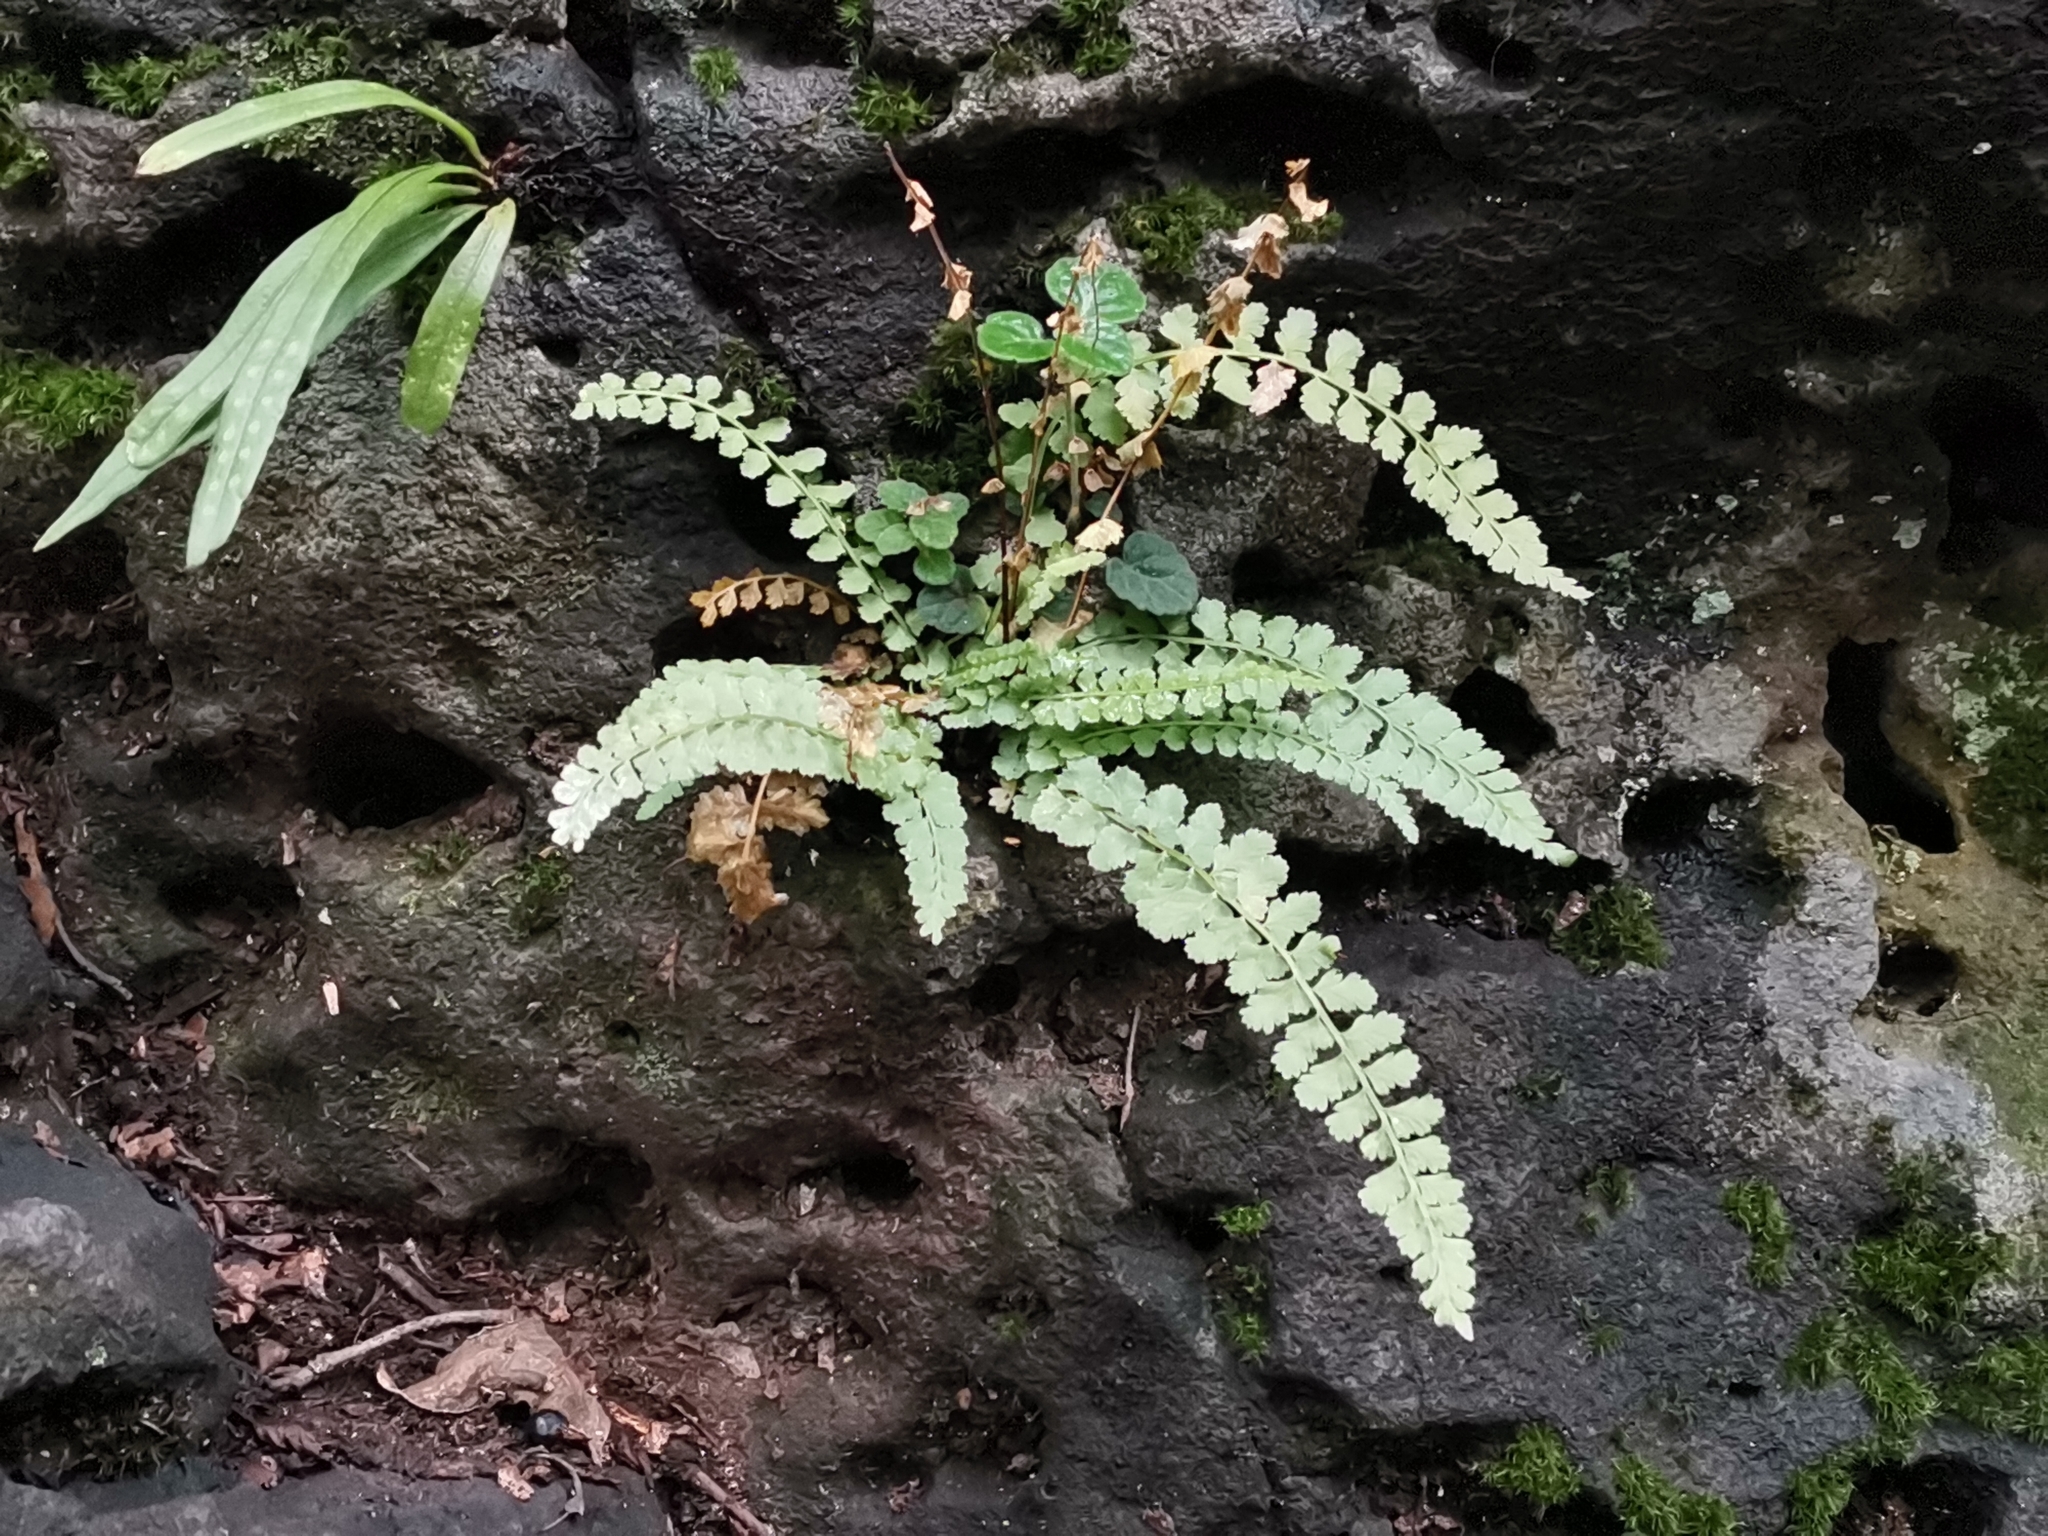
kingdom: Plantae
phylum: Tracheophyta
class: Polypodiopsida
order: Polypodiales
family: Aspleniaceae
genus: Asplenium
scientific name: Asplenium incisum
